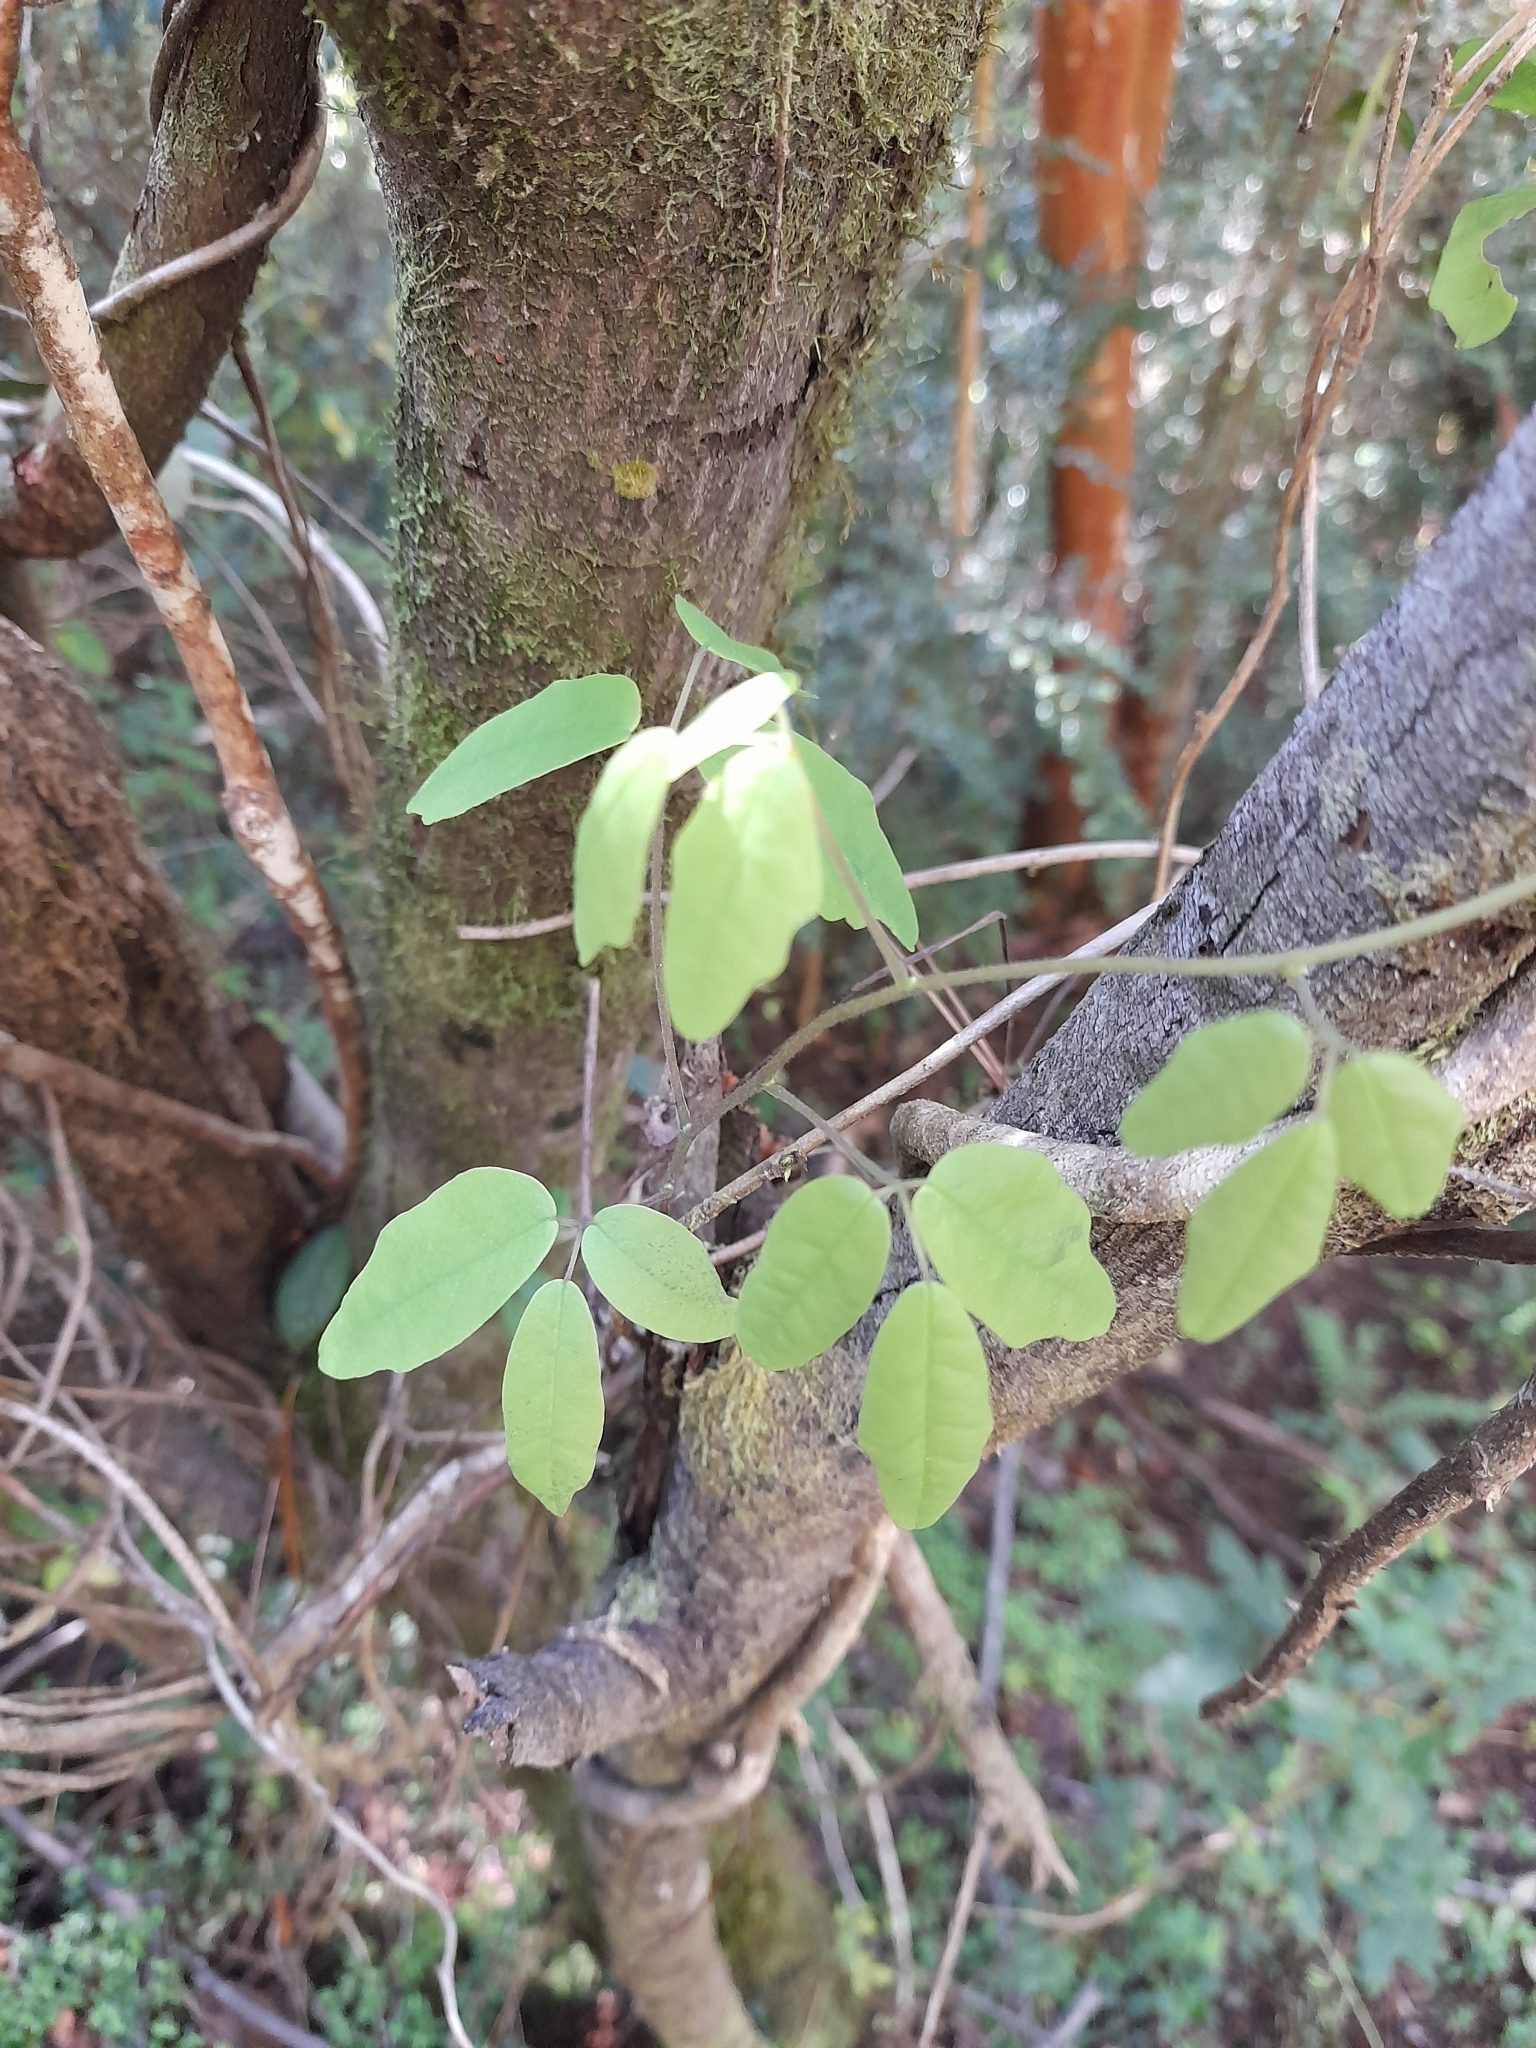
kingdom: Plantae
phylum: Tracheophyta
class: Magnoliopsida
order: Ranunculales
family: Lardizabalaceae
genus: Boquila
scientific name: Boquila trifoliolata
